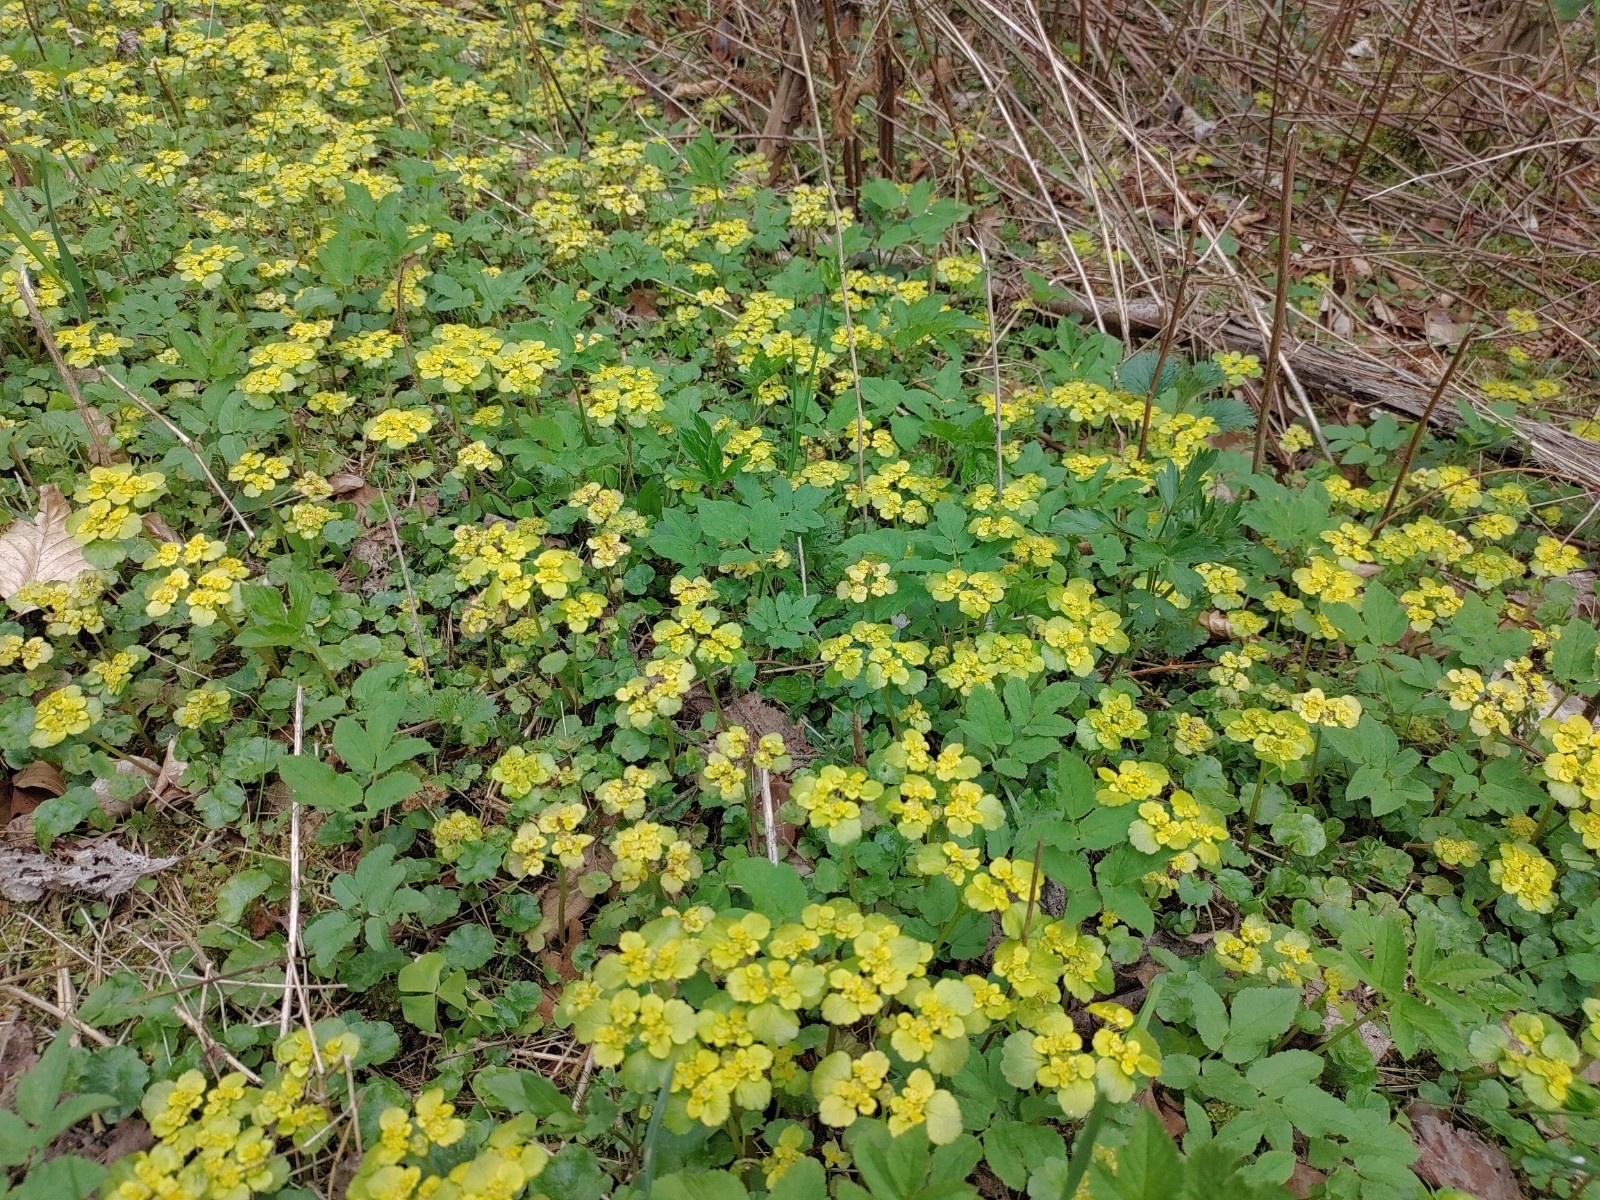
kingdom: Plantae
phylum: Tracheophyta
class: Magnoliopsida
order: Saxifragales
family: Saxifragaceae
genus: Chrysosplenium
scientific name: Chrysosplenium alternifolium
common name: Alternate-leaved golden-saxifrage
